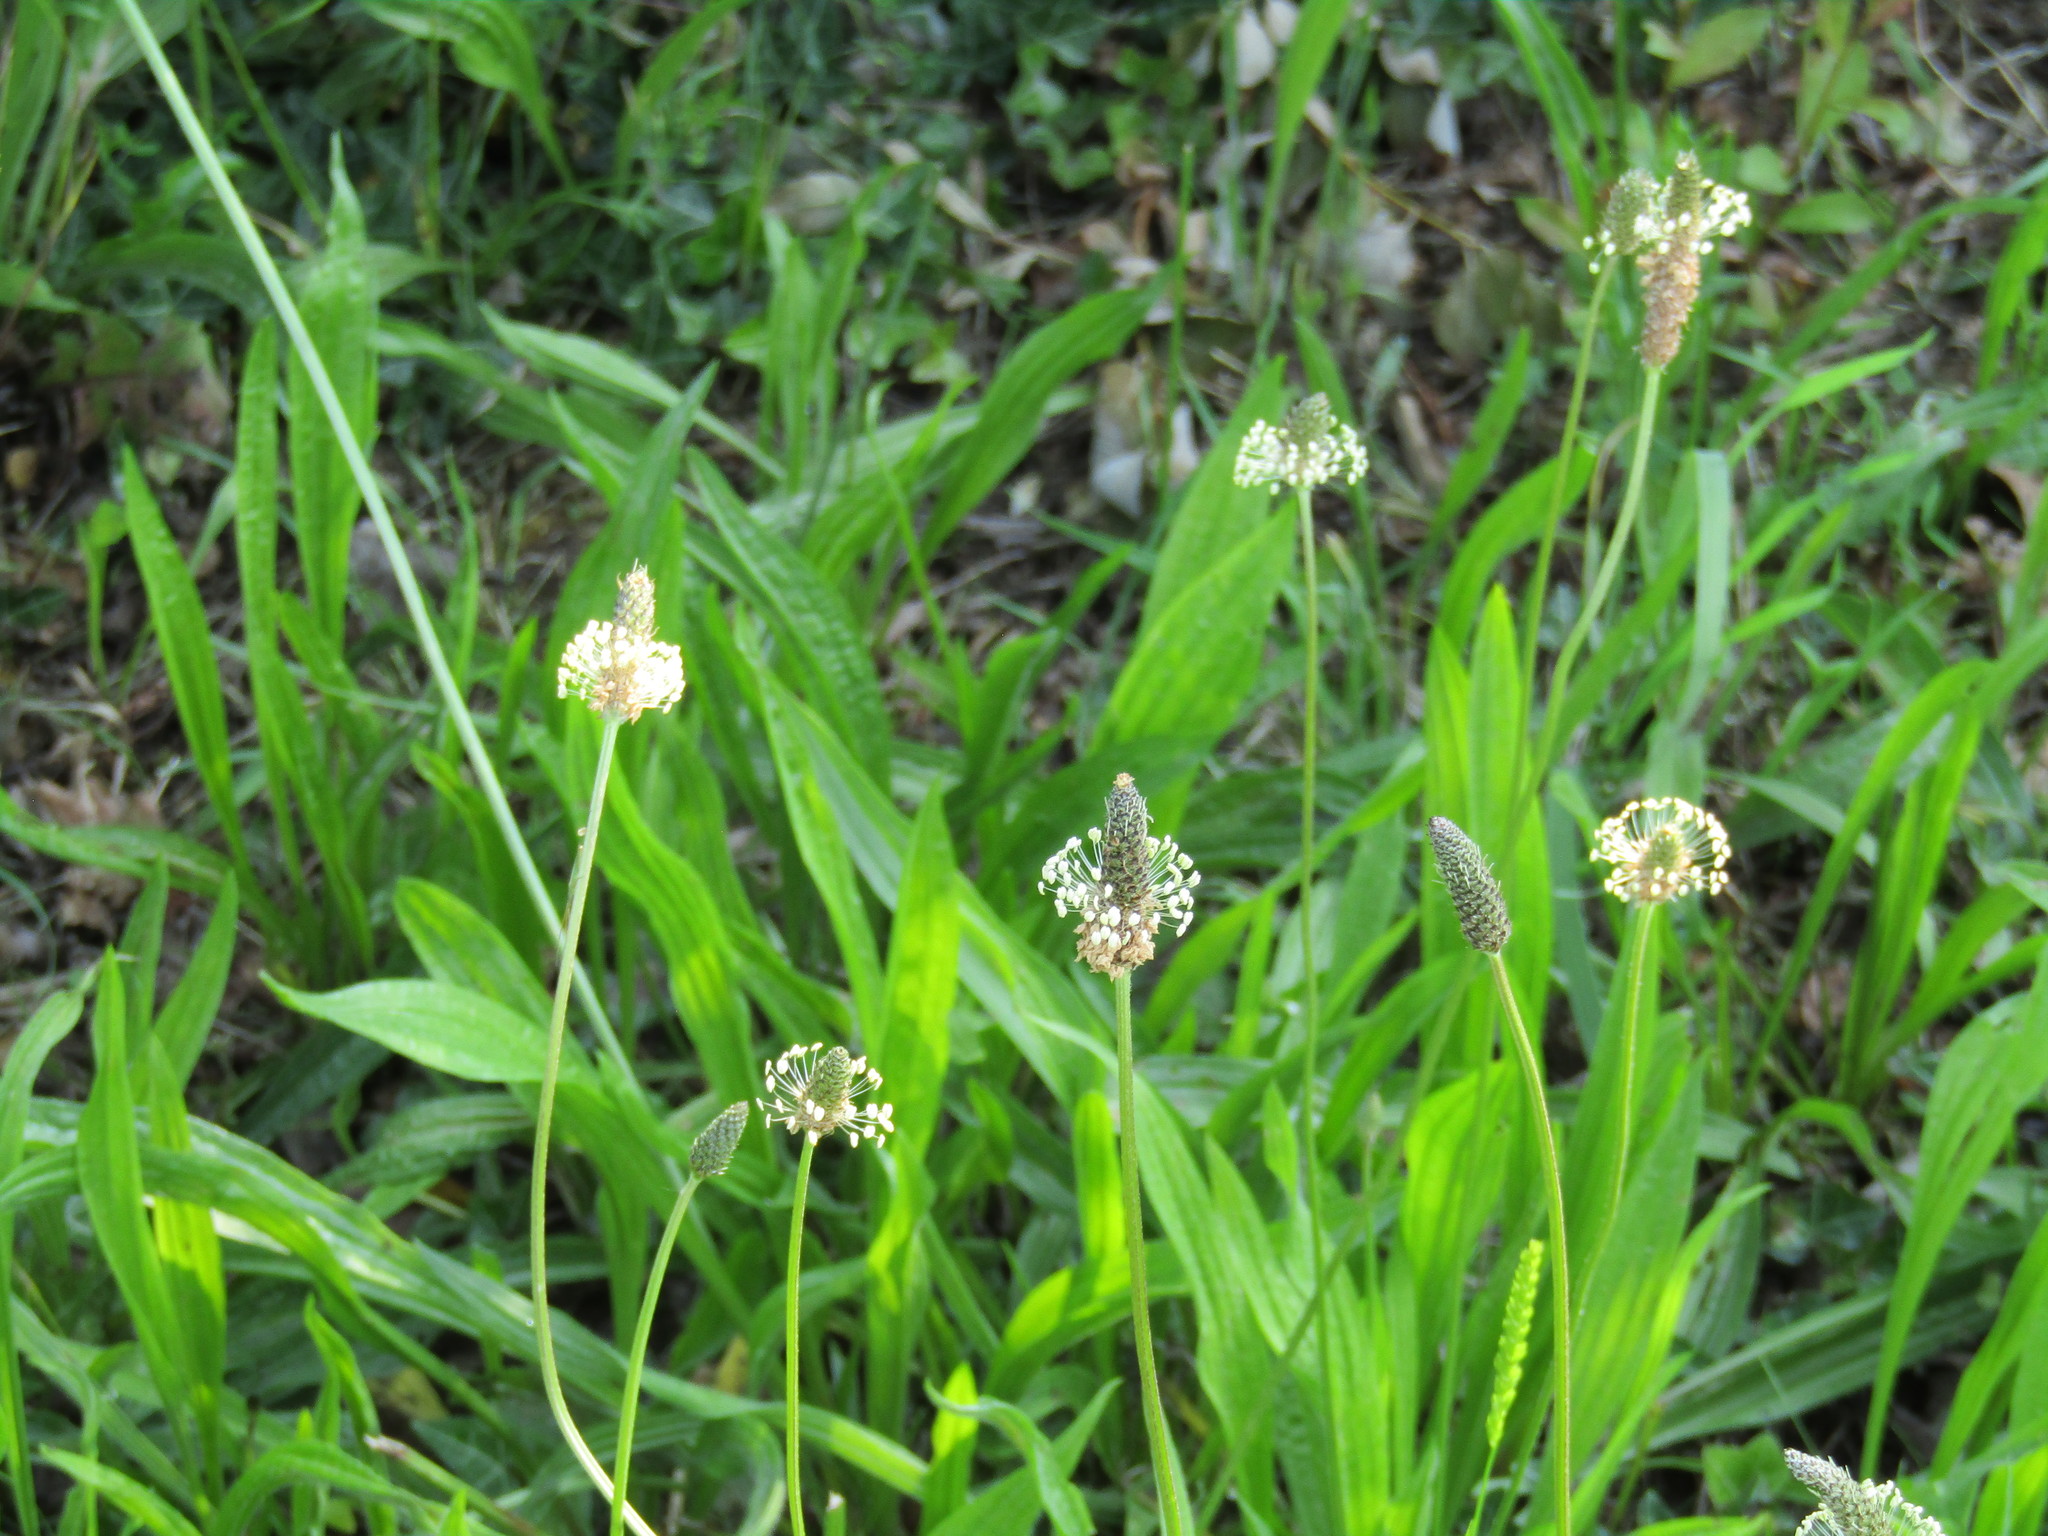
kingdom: Plantae
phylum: Tracheophyta
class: Magnoliopsida
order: Lamiales
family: Plantaginaceae
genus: Plantago
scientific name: Plantago lanceolata
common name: Ribwort plantain
